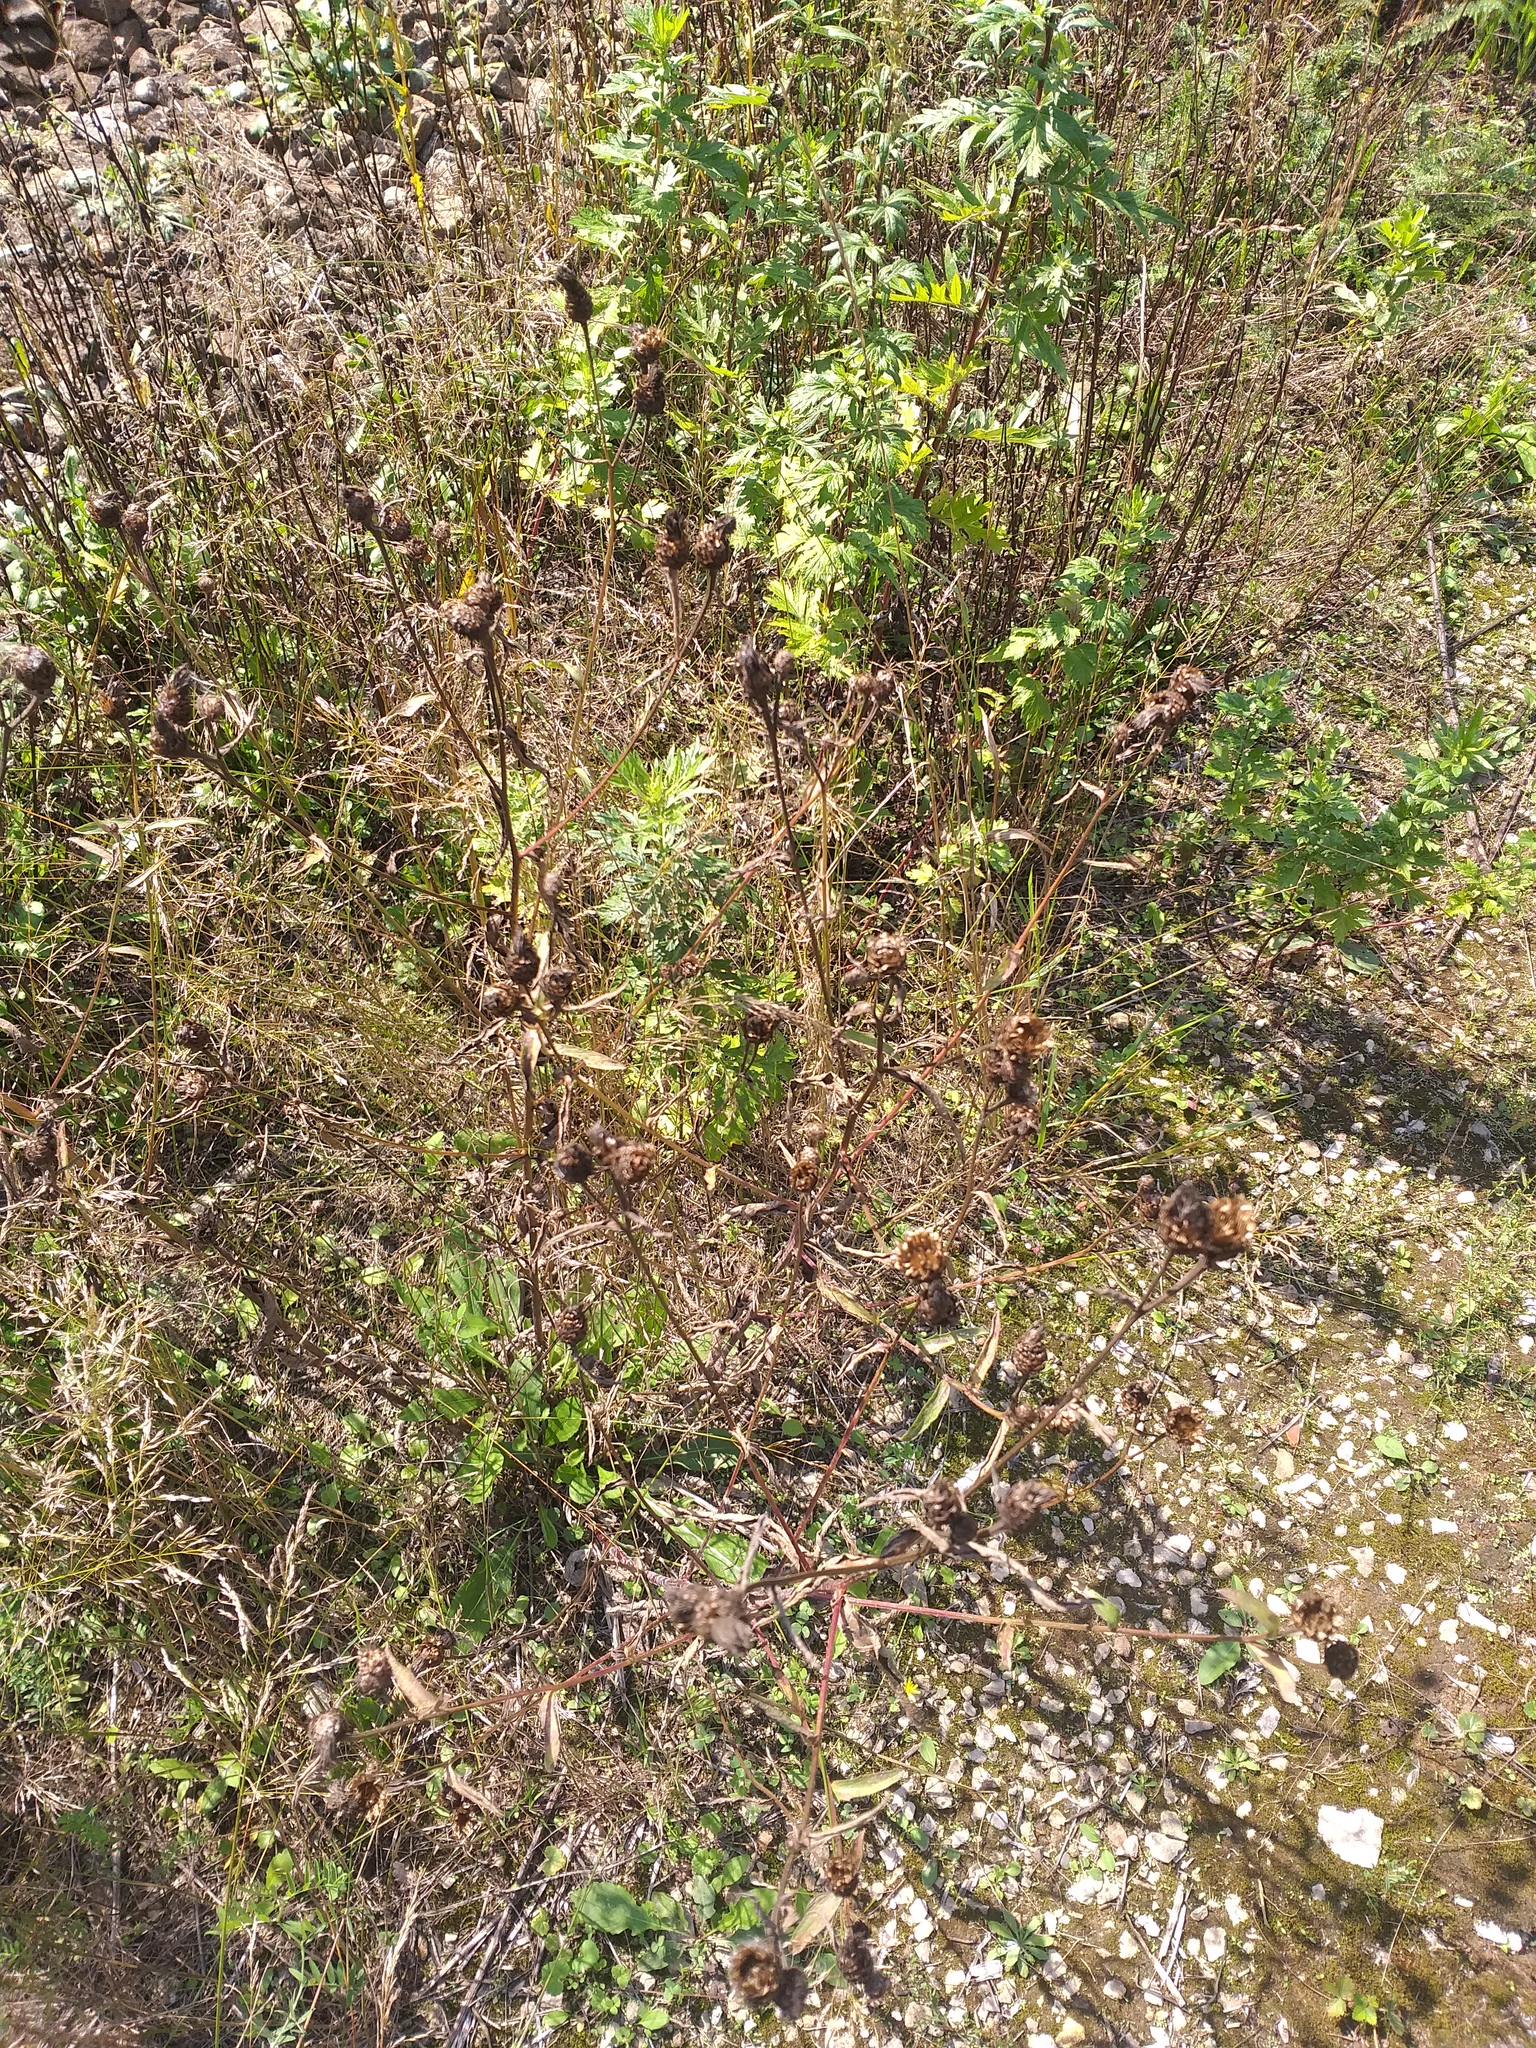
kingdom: Plantae
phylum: Tracheophyta
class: Magnoliopsida
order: Asterales
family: Asteraceae
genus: Centaurea
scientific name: Centaurea jacea
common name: Brown knapweed
